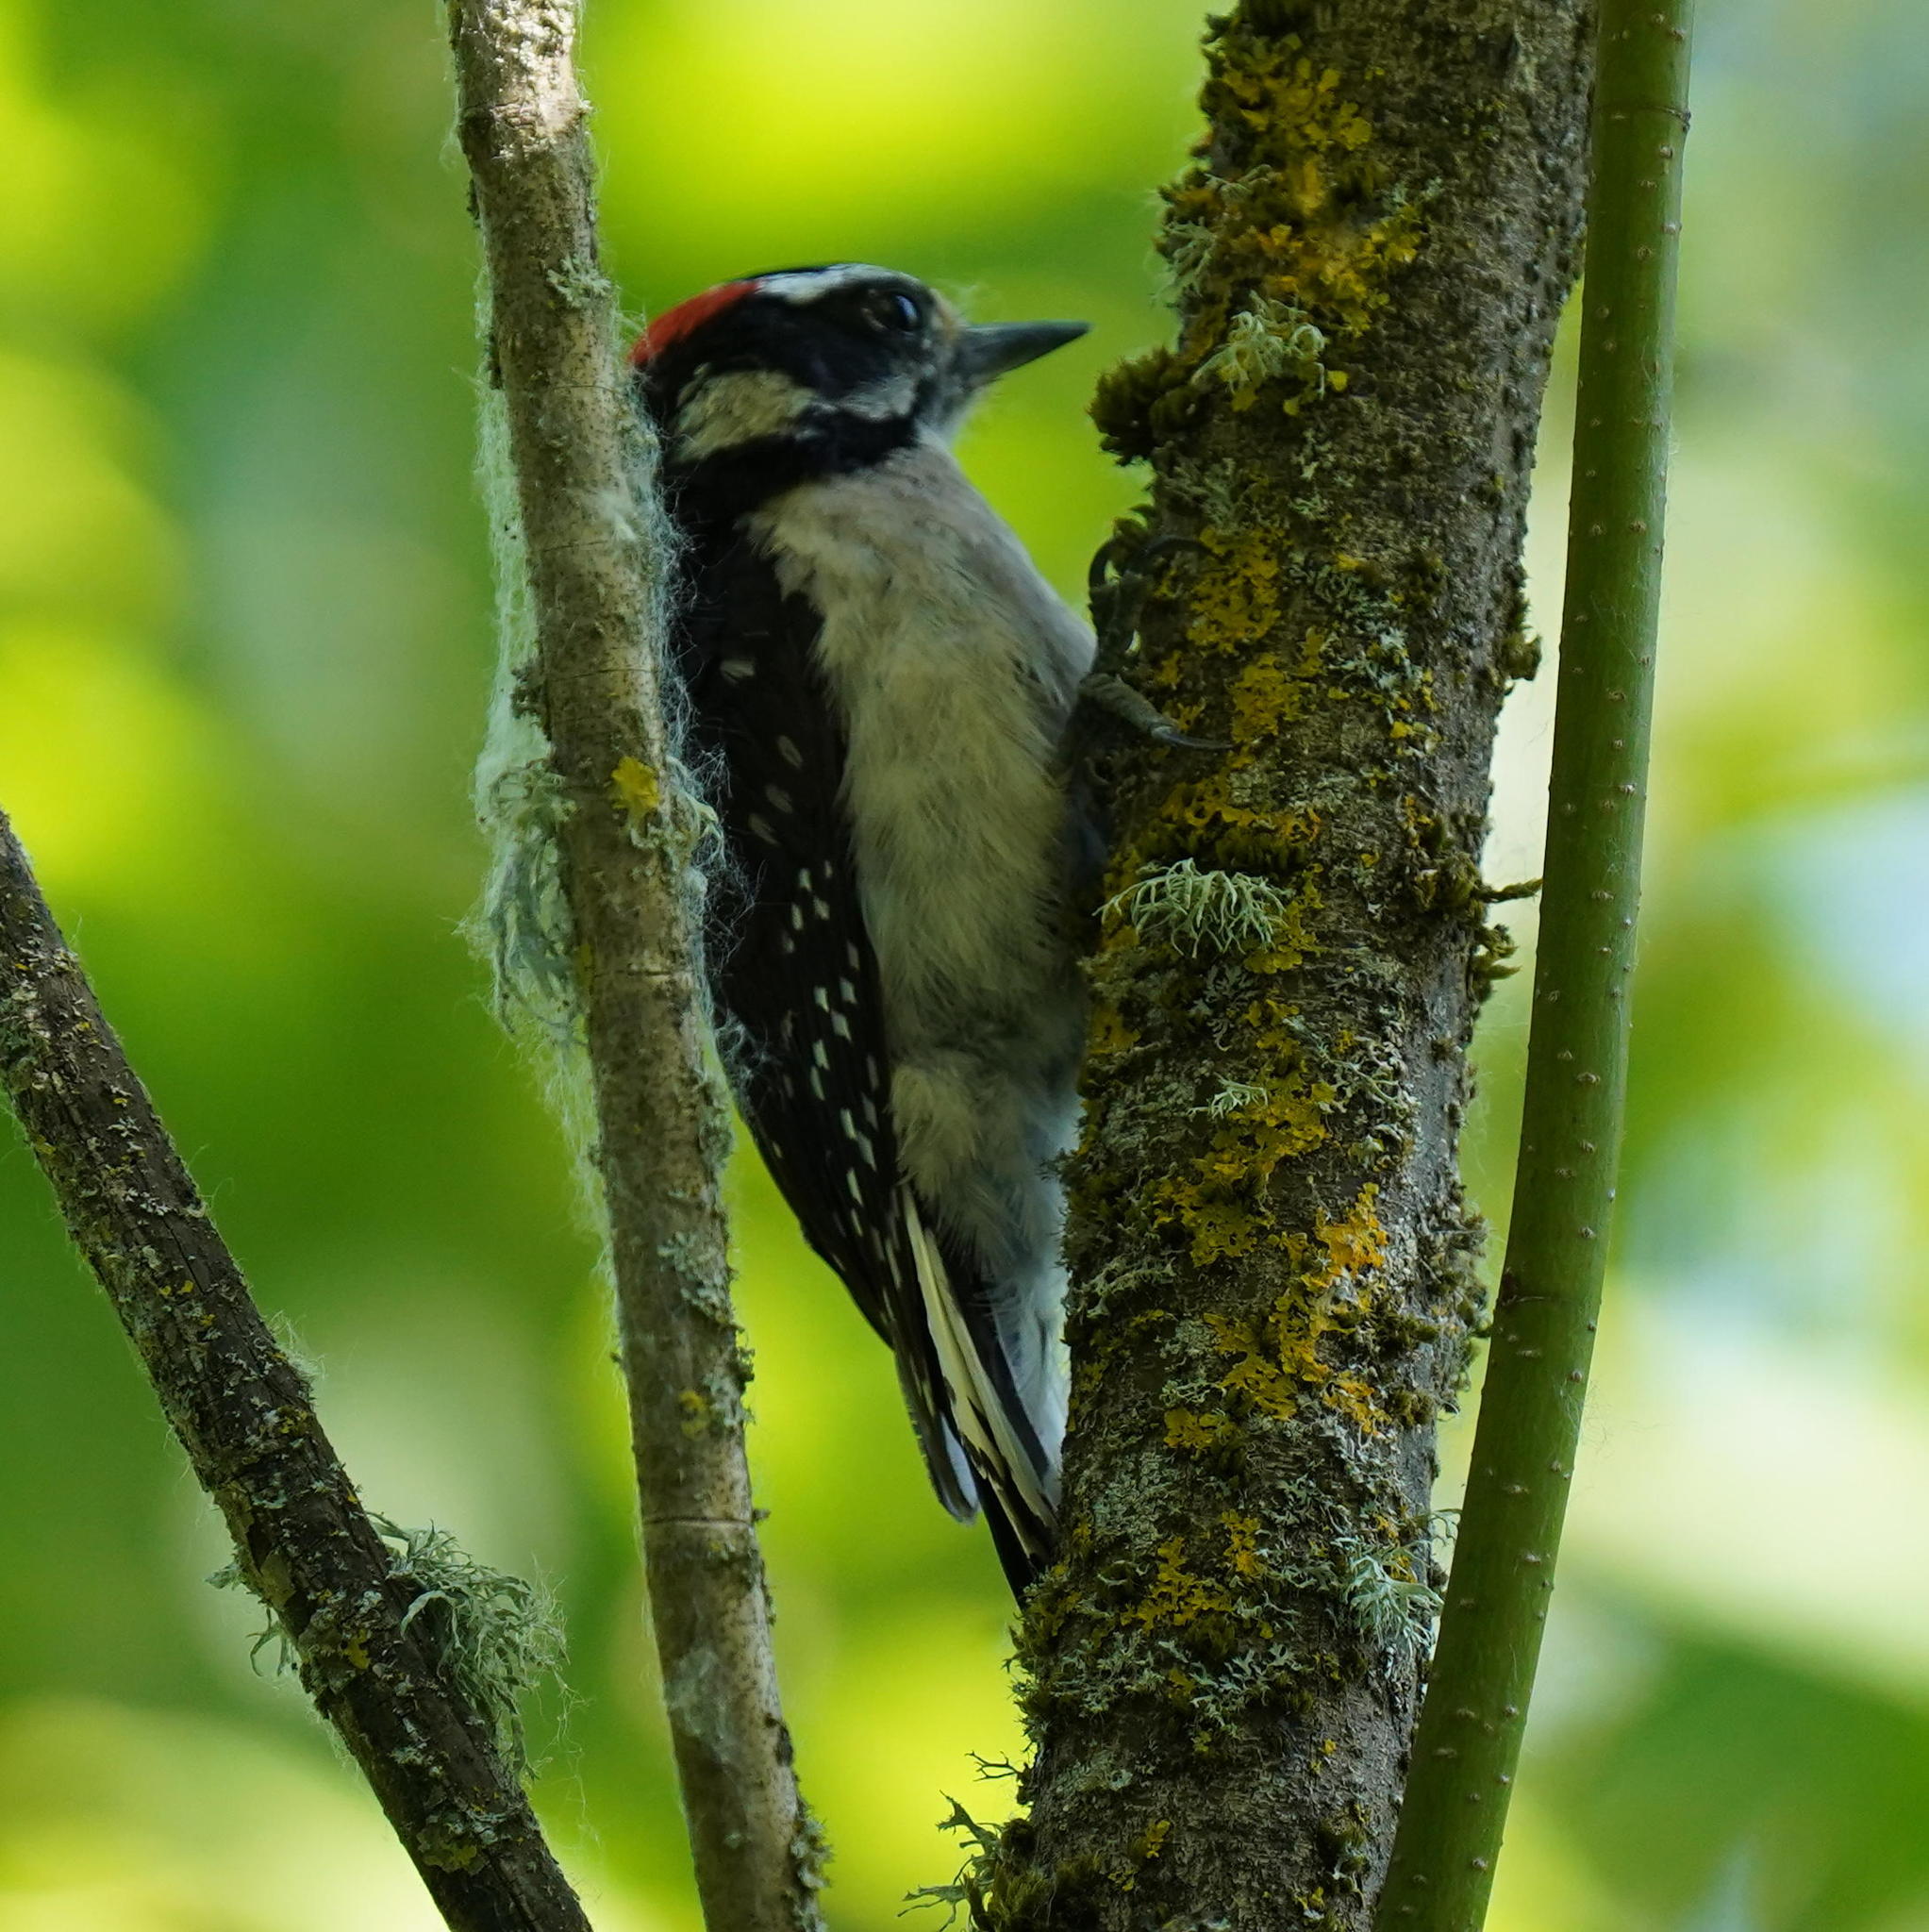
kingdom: Animalia
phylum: Chordata
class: Aves
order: Piciformes
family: Picidae
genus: Dryobates
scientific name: Dryobates pubescens
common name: Downy woodpecker
